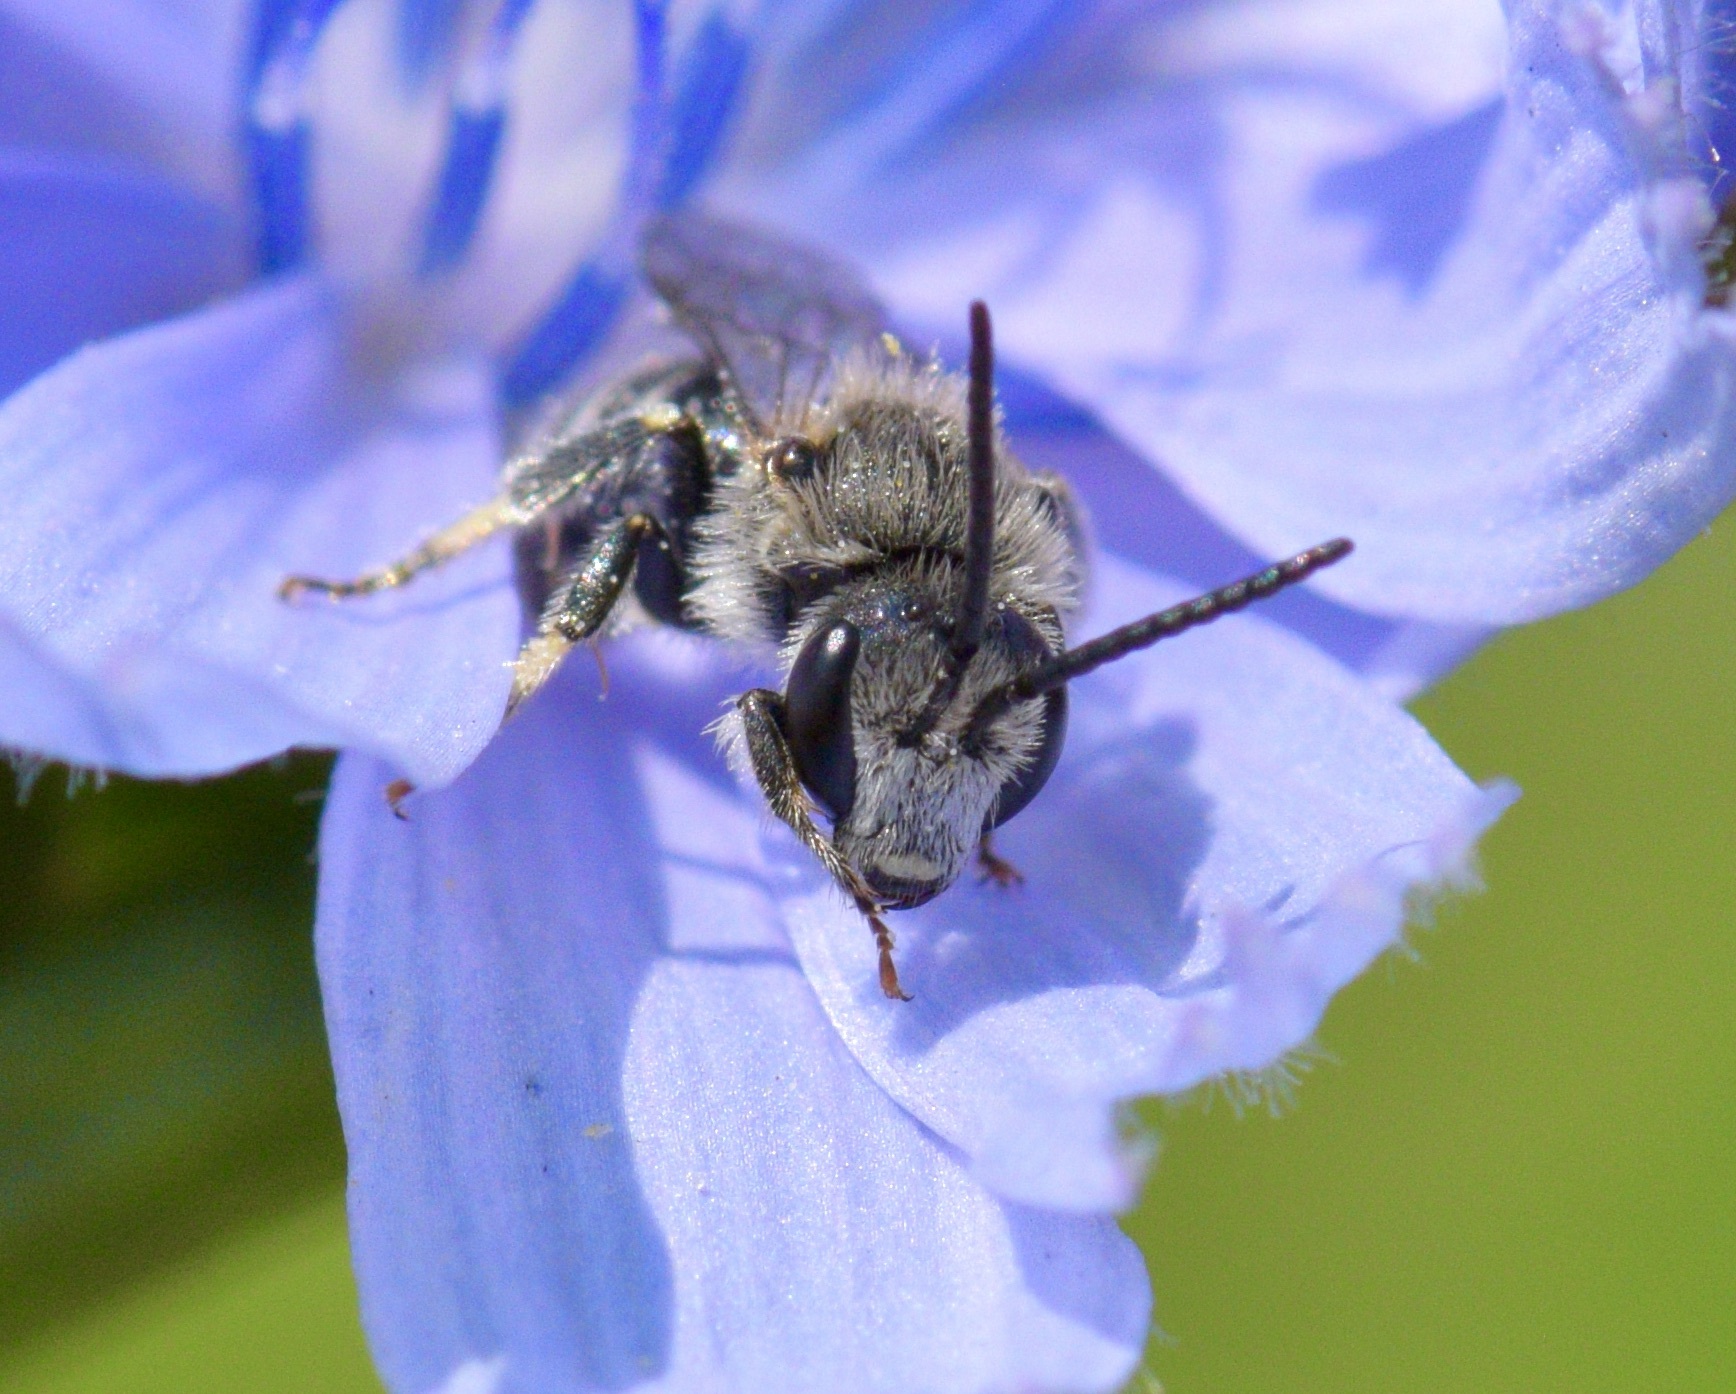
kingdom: Animalia
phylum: Arthropoda
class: Insecta
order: Hymenoptera
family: Halictidae
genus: Lasioglossum
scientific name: Lasioglossum leucozonium
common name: White-zoned furrow bee
